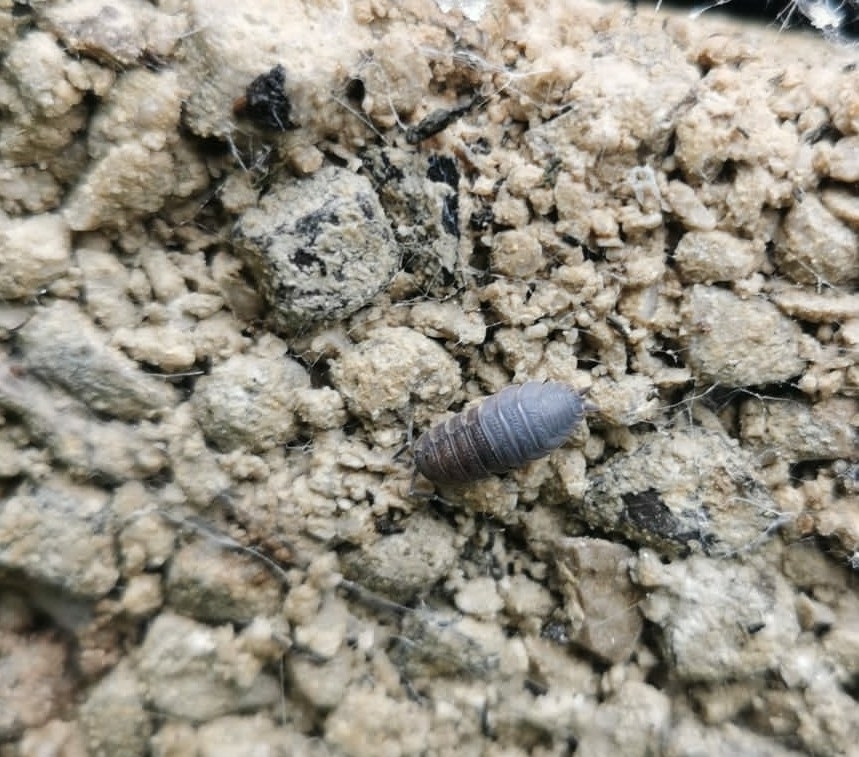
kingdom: Animalia
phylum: Arthropoda
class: Malacostraca
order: Isopoda
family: Porcellionidae
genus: Porcellio
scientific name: Porcellio scaber
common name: Common rough woodlouse
